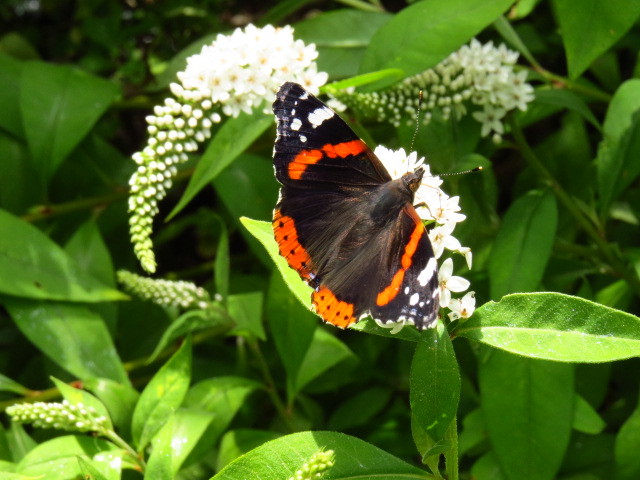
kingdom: Animalia
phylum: Arthropoda
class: Insecta
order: Lepidoptera
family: Nymphalidae
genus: Vanessa
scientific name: Vanessa atalanta
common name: Red admiral
